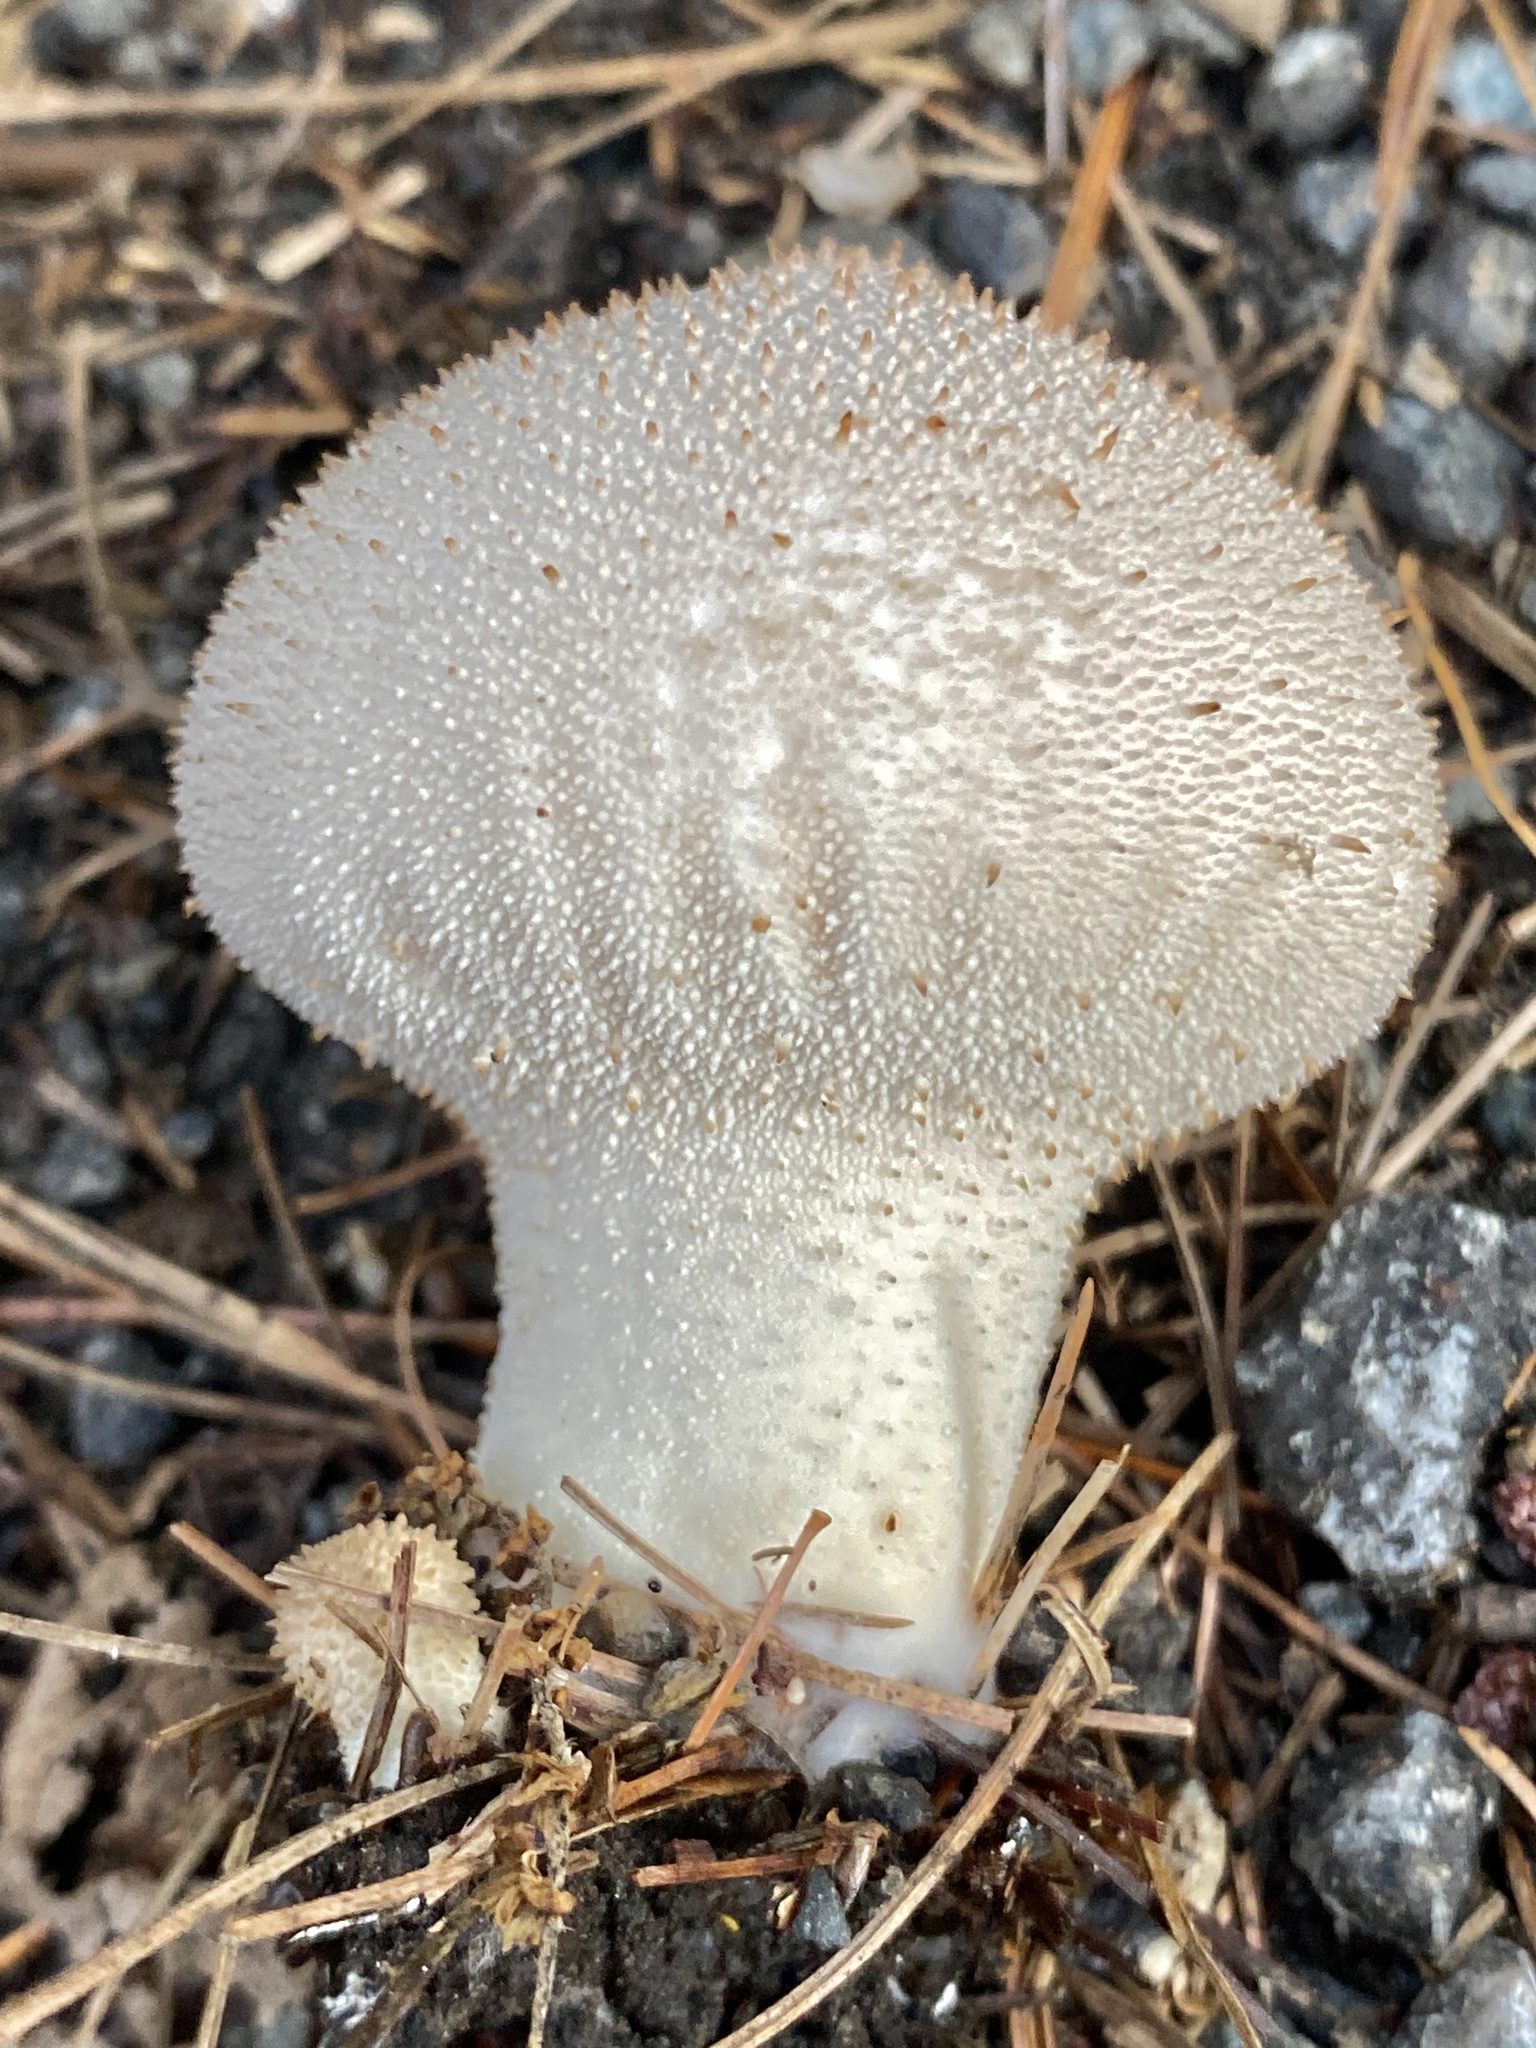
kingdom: Fungi
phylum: Basidiomycota
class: Agaricomycetes
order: Agaricales
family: Lycoperdaceae
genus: Lycoperdon
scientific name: Lycoperdon perlatum
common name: Common puffball
